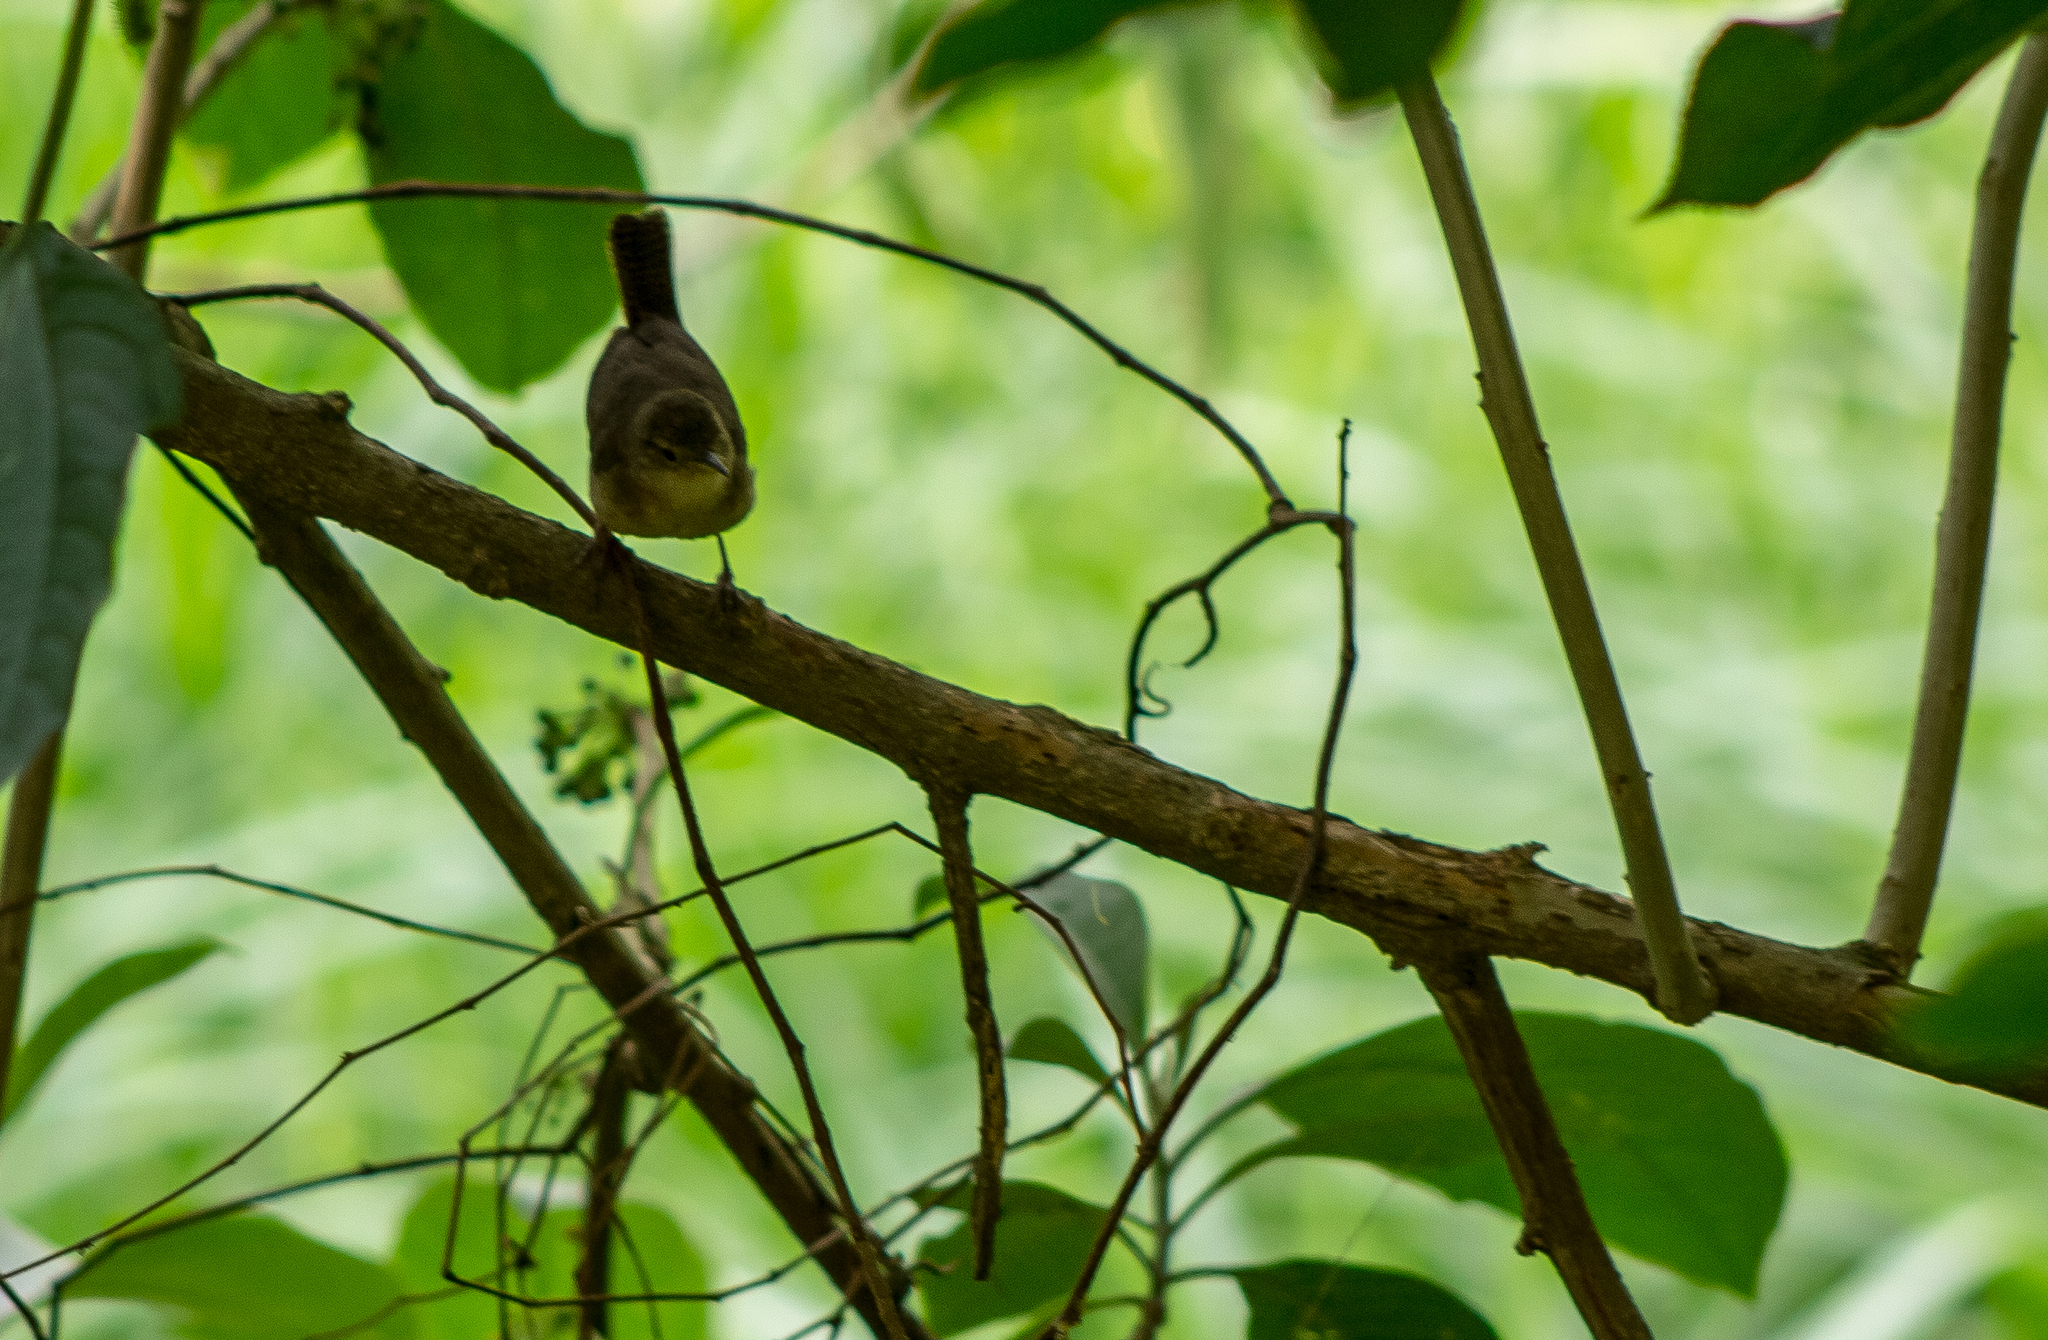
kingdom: Animalia
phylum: Chordata
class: Aves
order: Passeriformes
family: Troglodytidae
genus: Troglodytes
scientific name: Troglodytes aedon
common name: House wren
